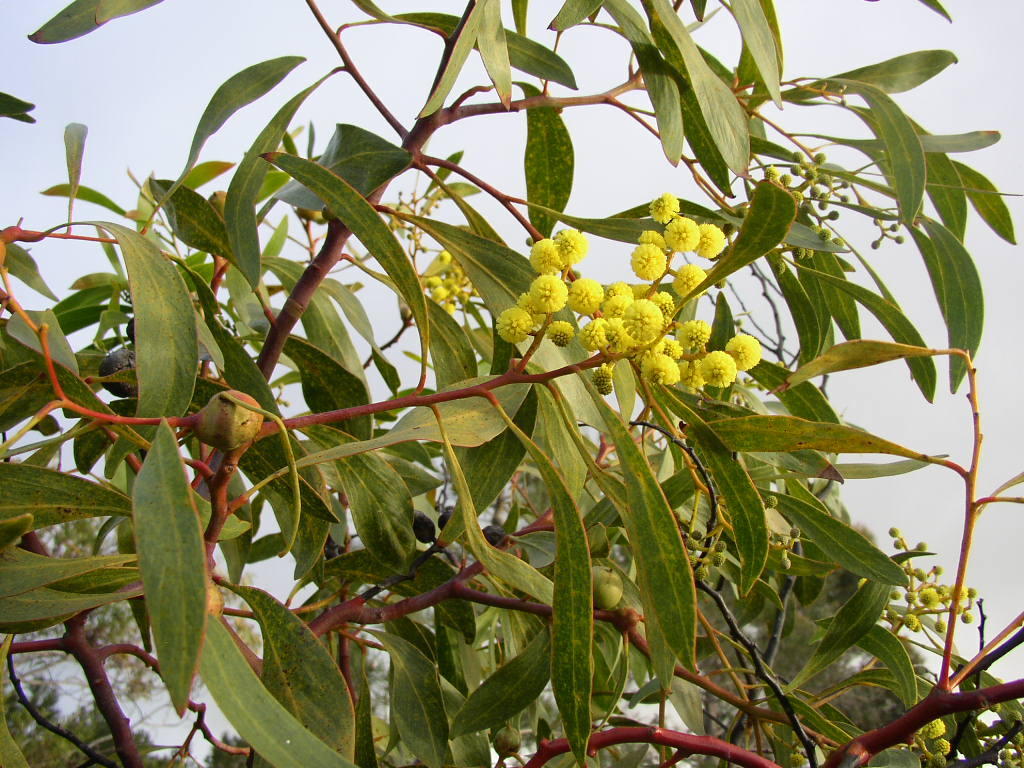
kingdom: Plantae
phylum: Tracheophyta
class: Magnoliopsida
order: Fabales
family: Fabaceae
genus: Acacia
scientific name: Acacia pycnantha
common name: Golden wattle
